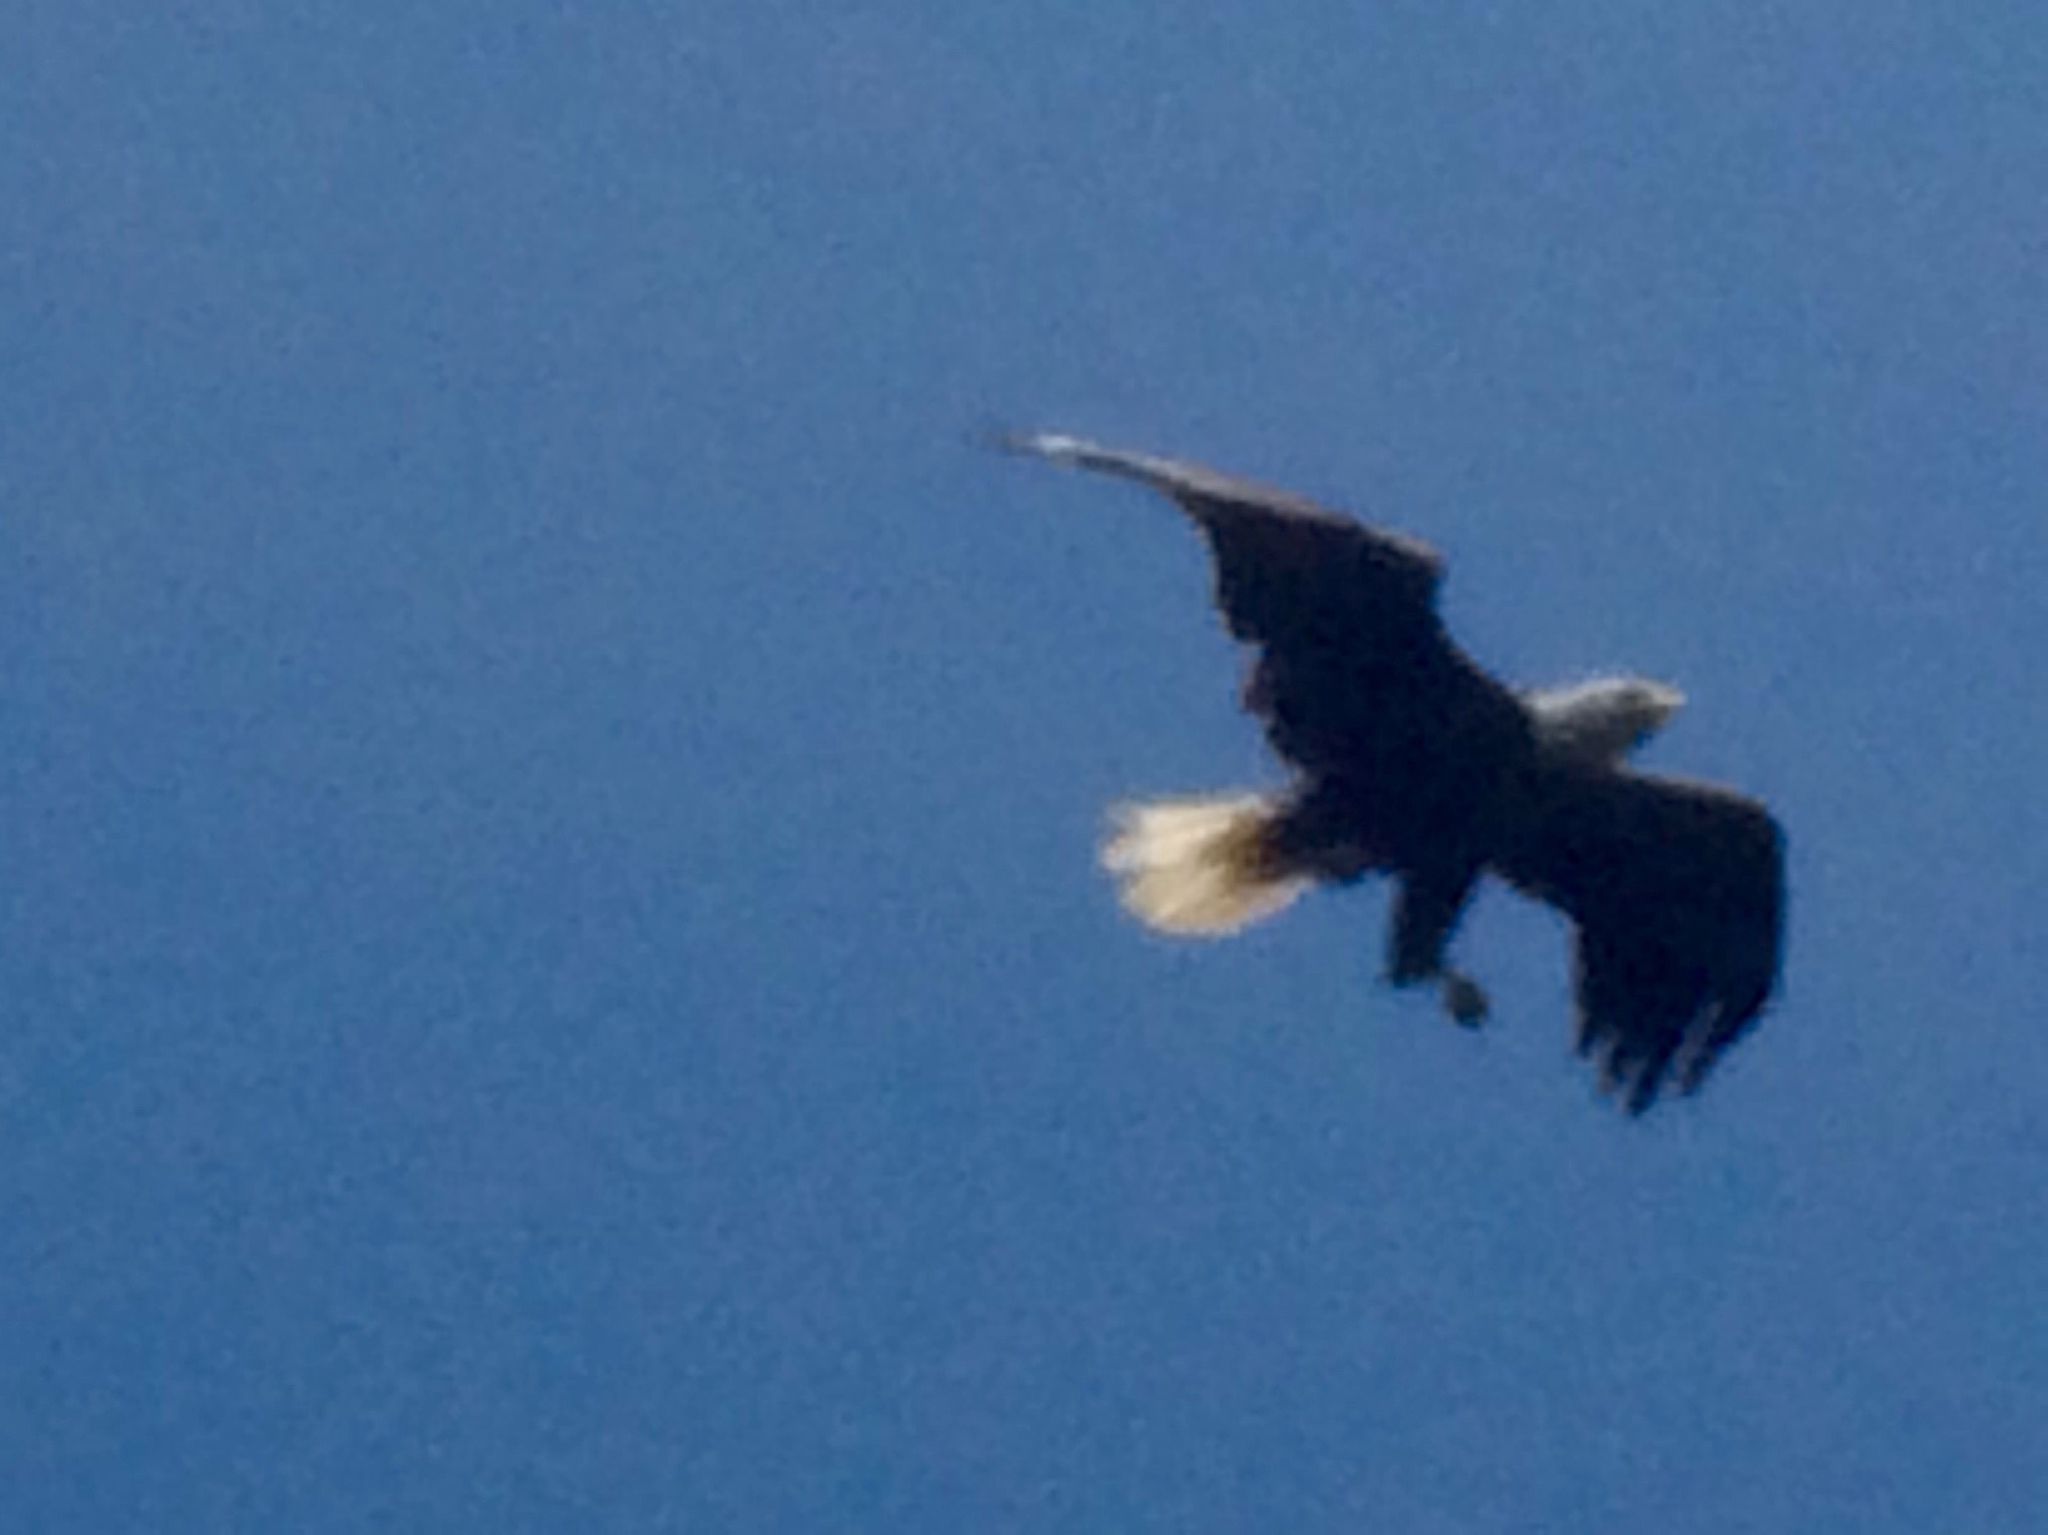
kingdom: Animalia
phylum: Chordata
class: Aves
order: Accipitriformes
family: Accipitridae
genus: Haliaeetus
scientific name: Haliaeetus leucocephalus
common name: Bald eagle
